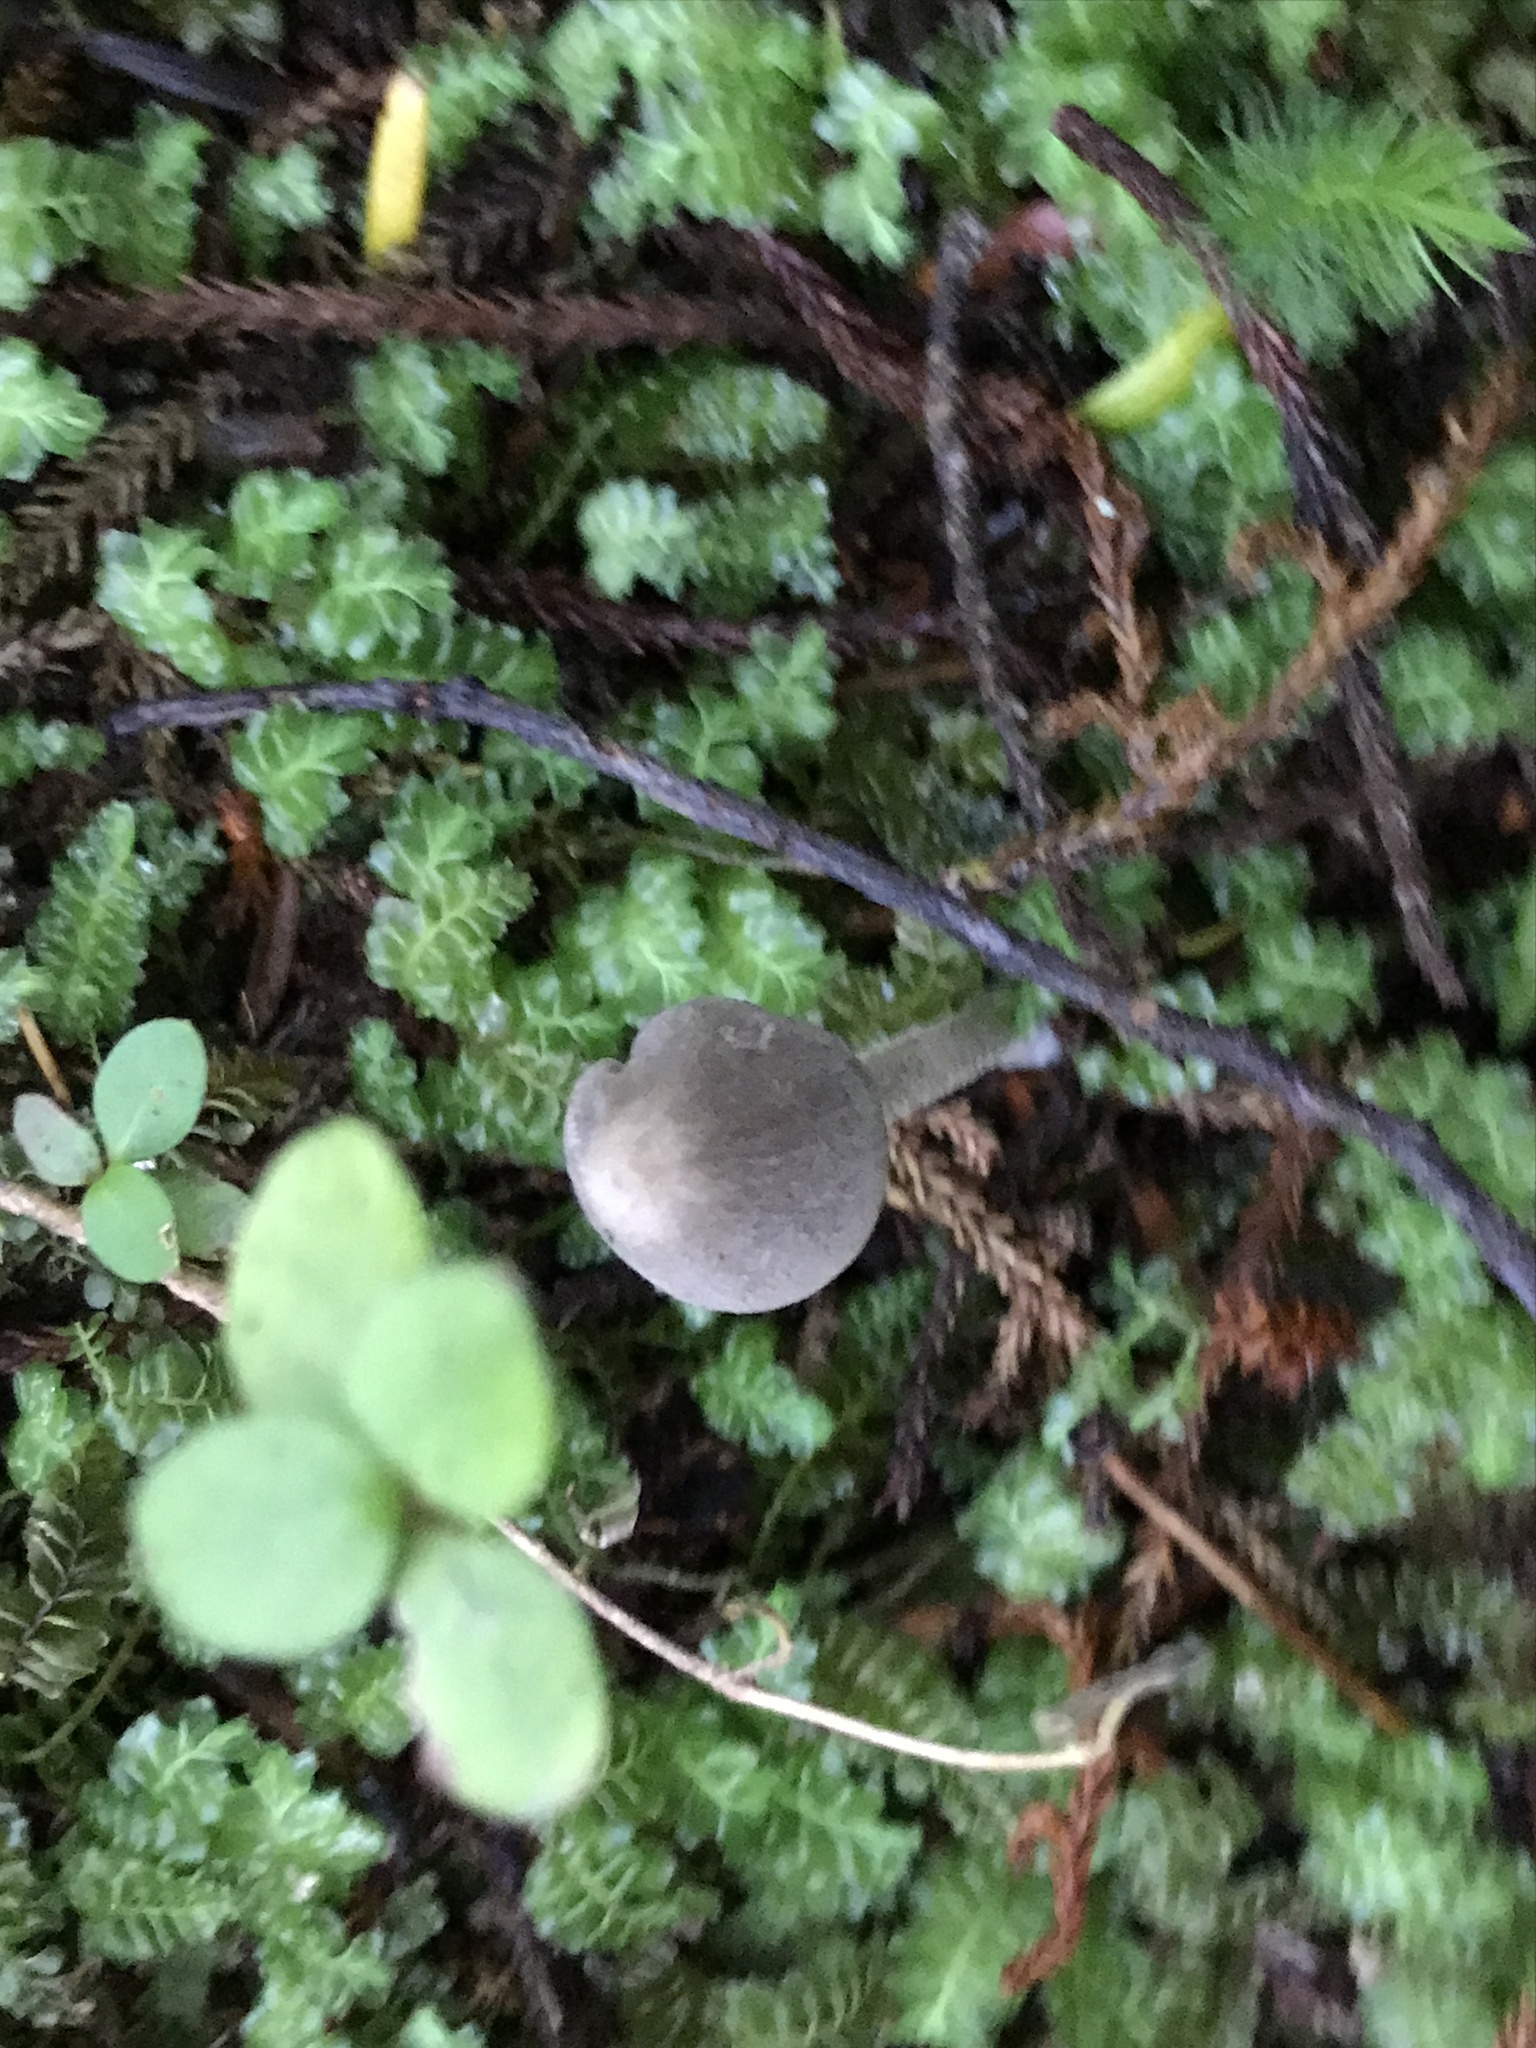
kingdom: Fungi
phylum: Basidiomycota
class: Agaricomycetes
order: Agaricales
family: Entolomataceae
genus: Entoloma
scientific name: Entoloma canoconicum
